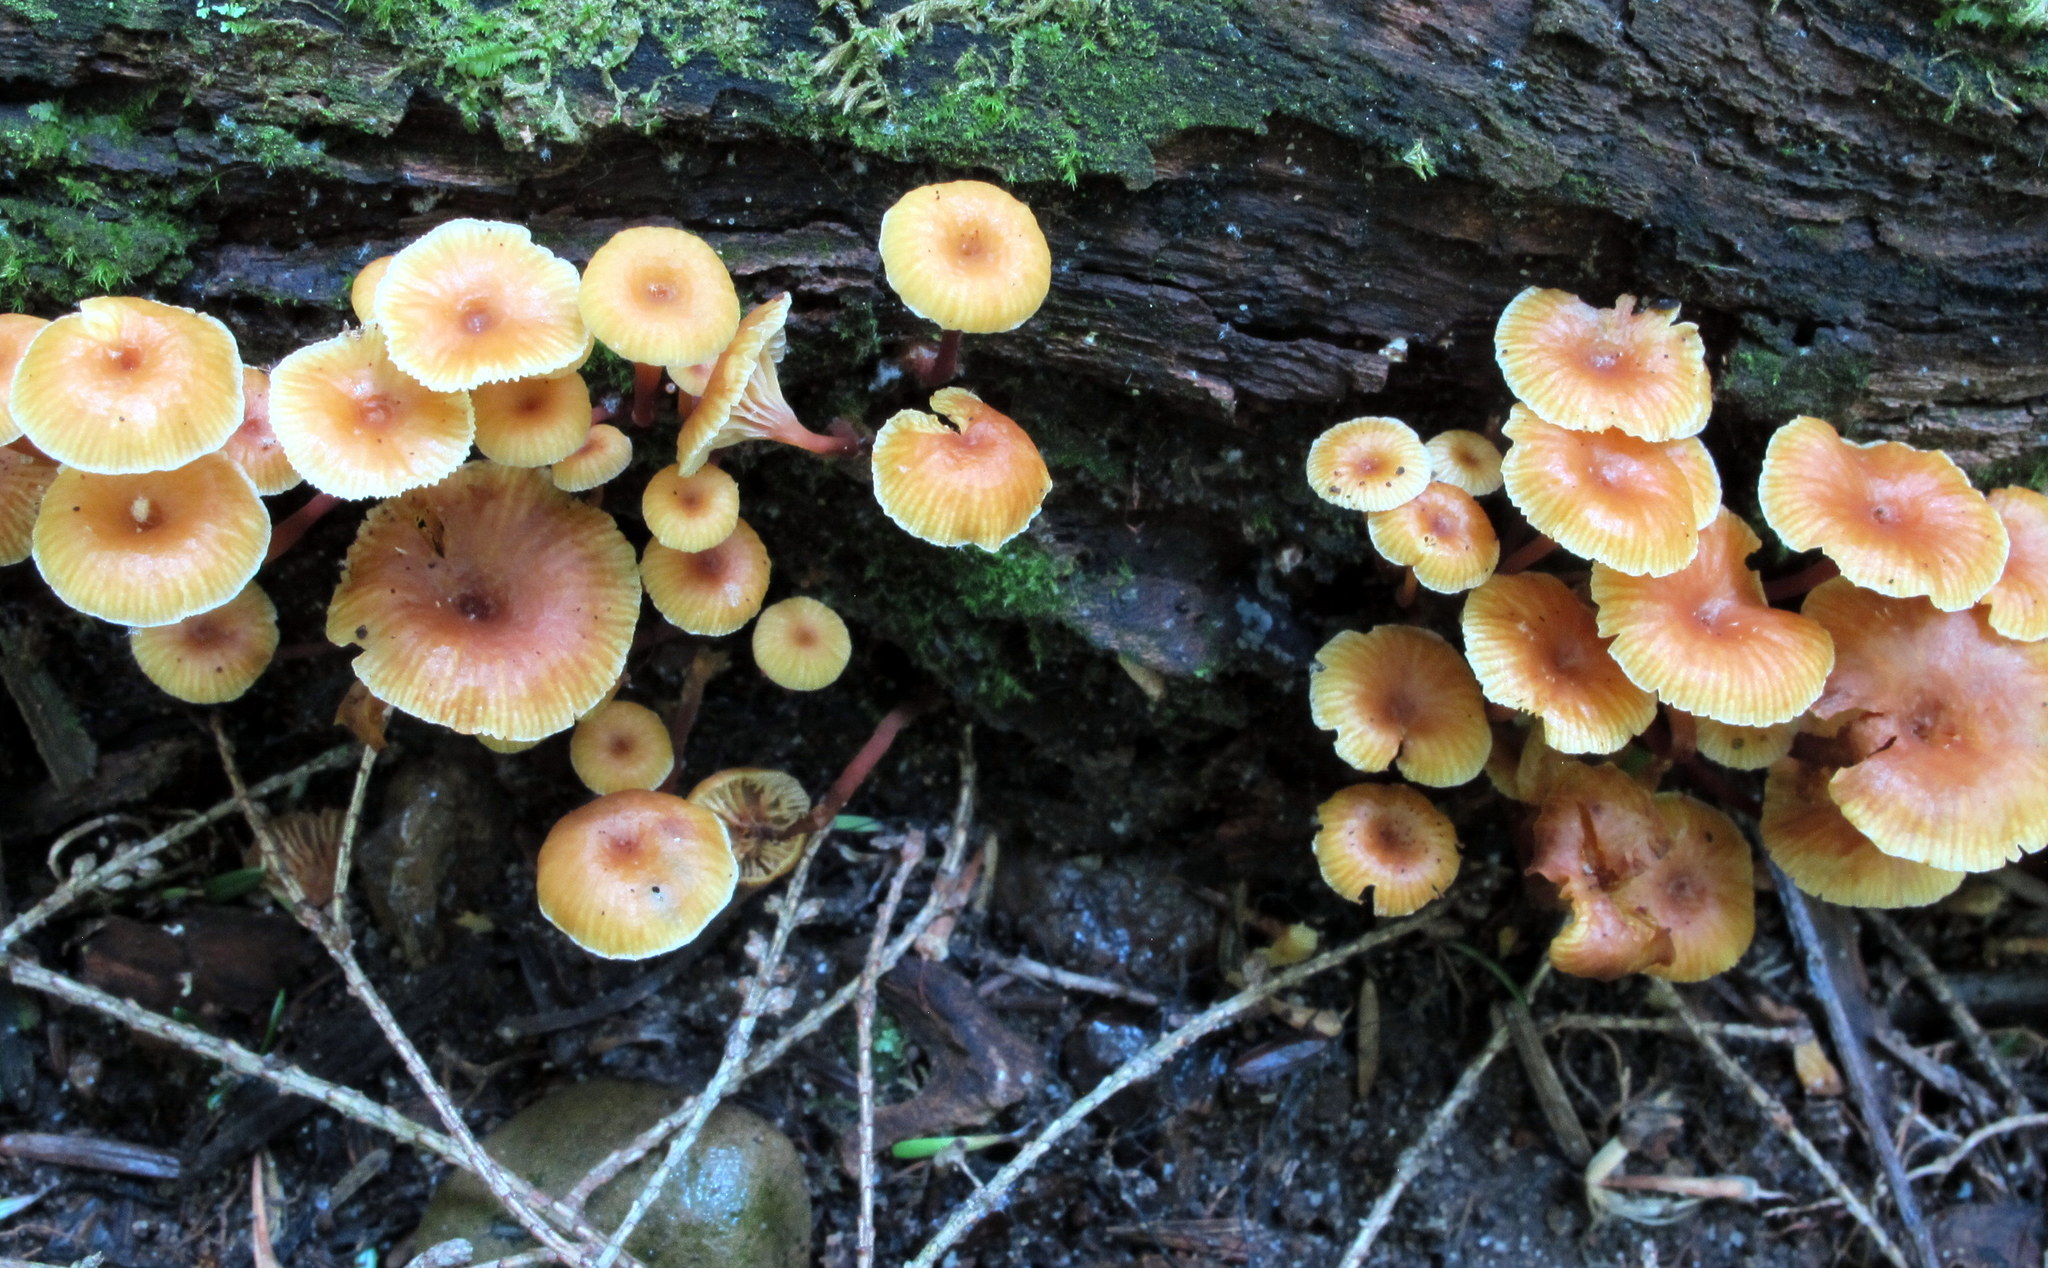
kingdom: Fungi
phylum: Basidiomycota
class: Agaricomycetes
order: Agaricales
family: Mycenaceae
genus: Xeromphalina
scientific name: Xeromphalina kauffmanii
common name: Cross-veined troop mushroom
